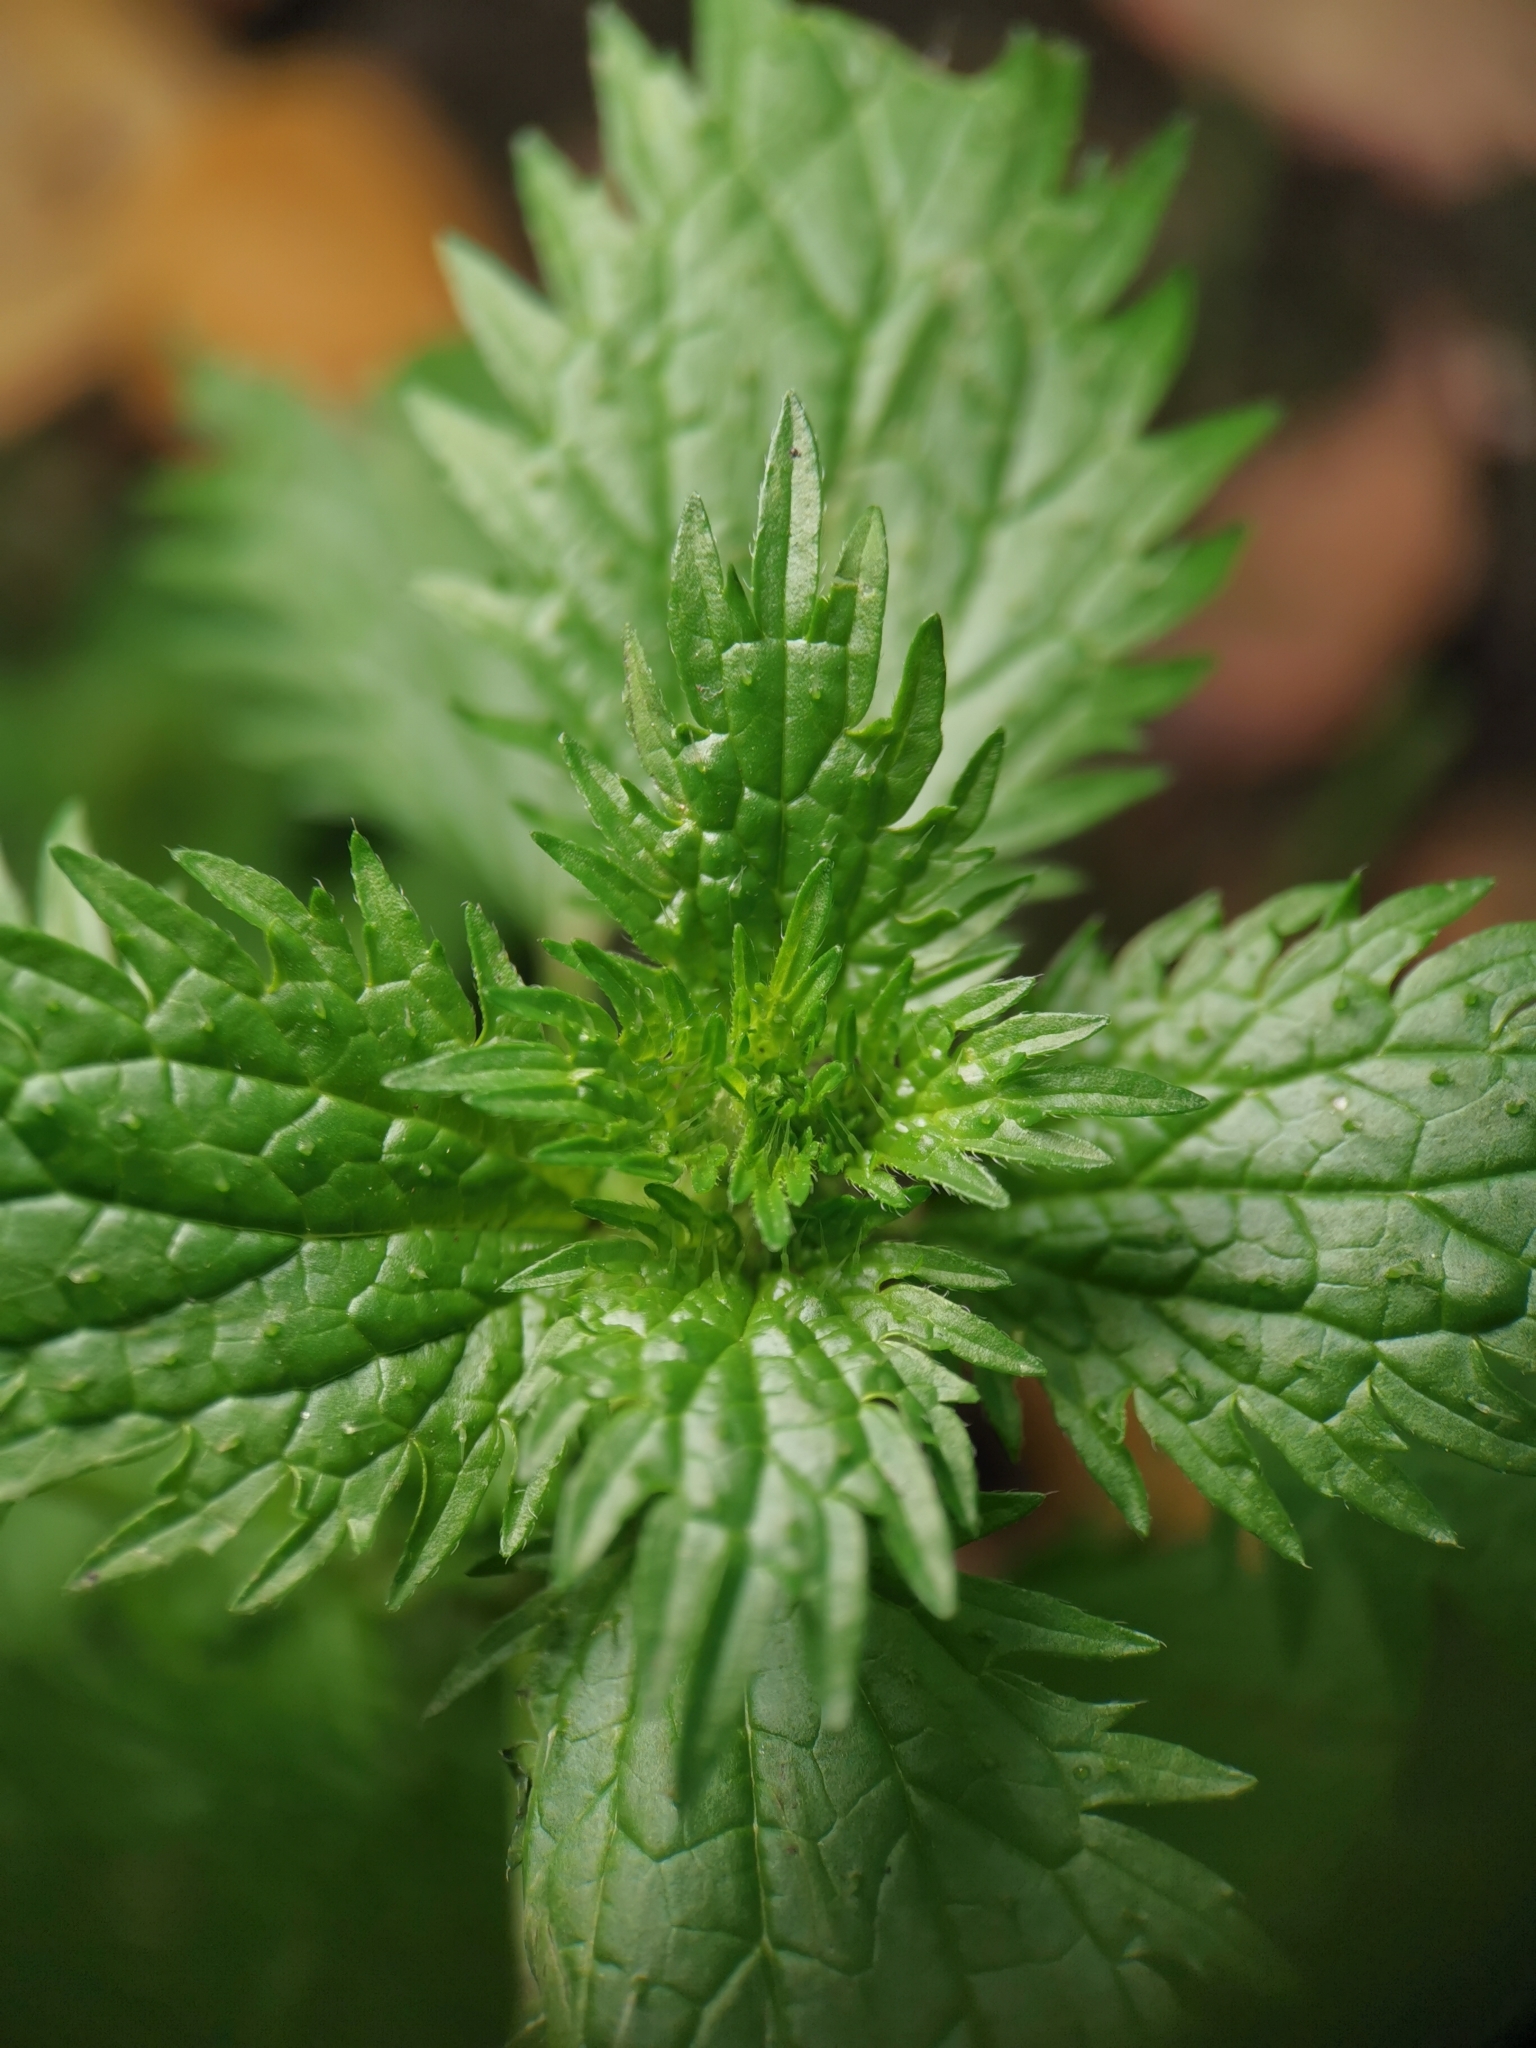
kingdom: Plantae
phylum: Tracheophyta
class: Magnoliopsida
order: Rosales
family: Urticaceae
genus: Urtica
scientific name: Urtica urens
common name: Dwarf nettle
